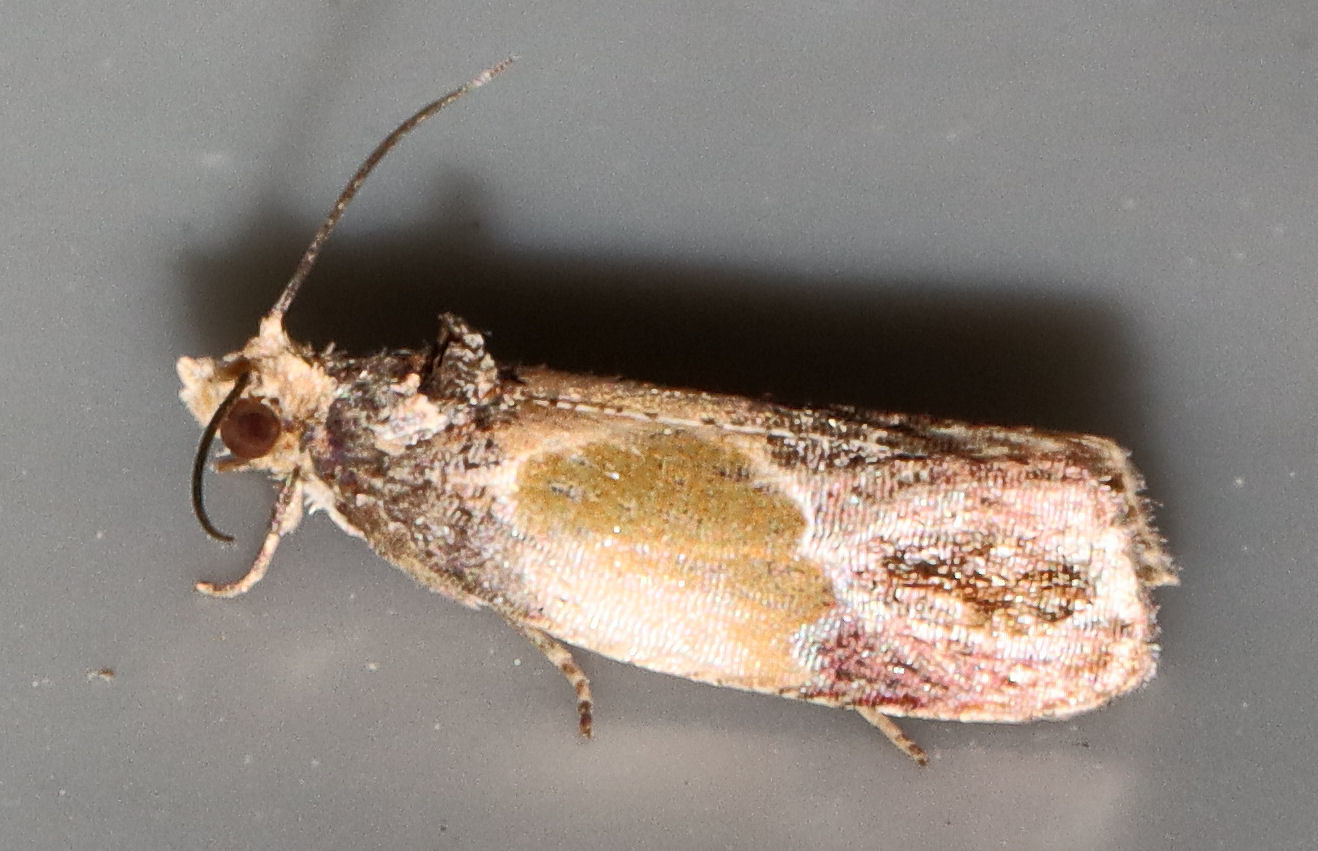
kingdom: Animalia
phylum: Arthropoda
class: Insecta
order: Lepidoptera
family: Tortricidae
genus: Eumarozia
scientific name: Eumarozia malachitana
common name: Sculptured moth
